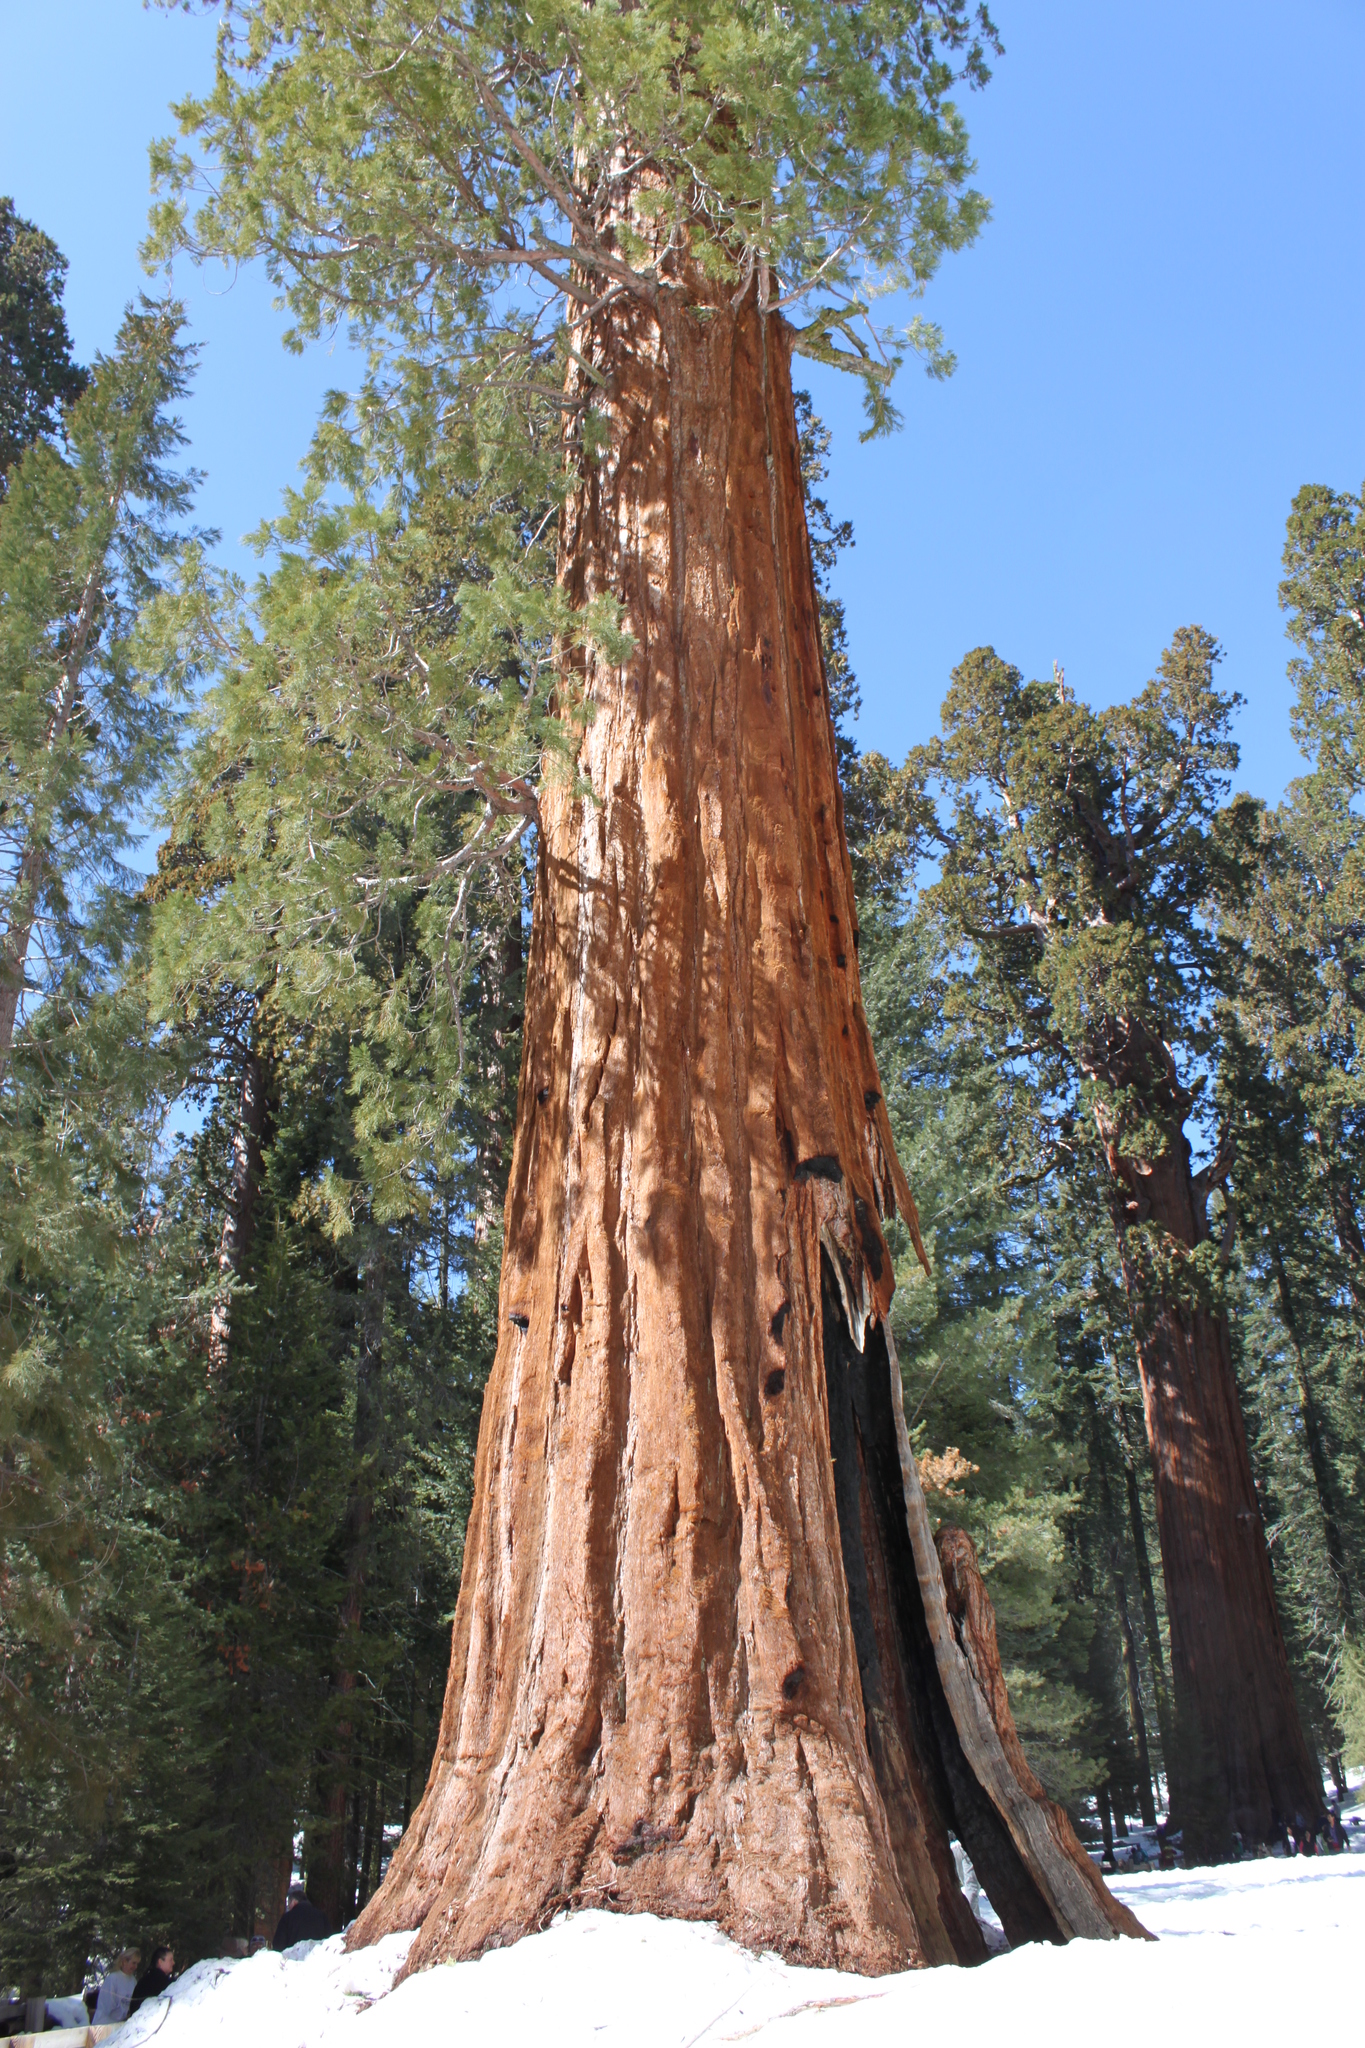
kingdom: Plantae
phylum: Tracheophyta
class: Pinopsida
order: Pinales
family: Cupressaceae
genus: Sequoiadendron
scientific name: Sequoiadendron giganteum
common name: Wellingtonia
